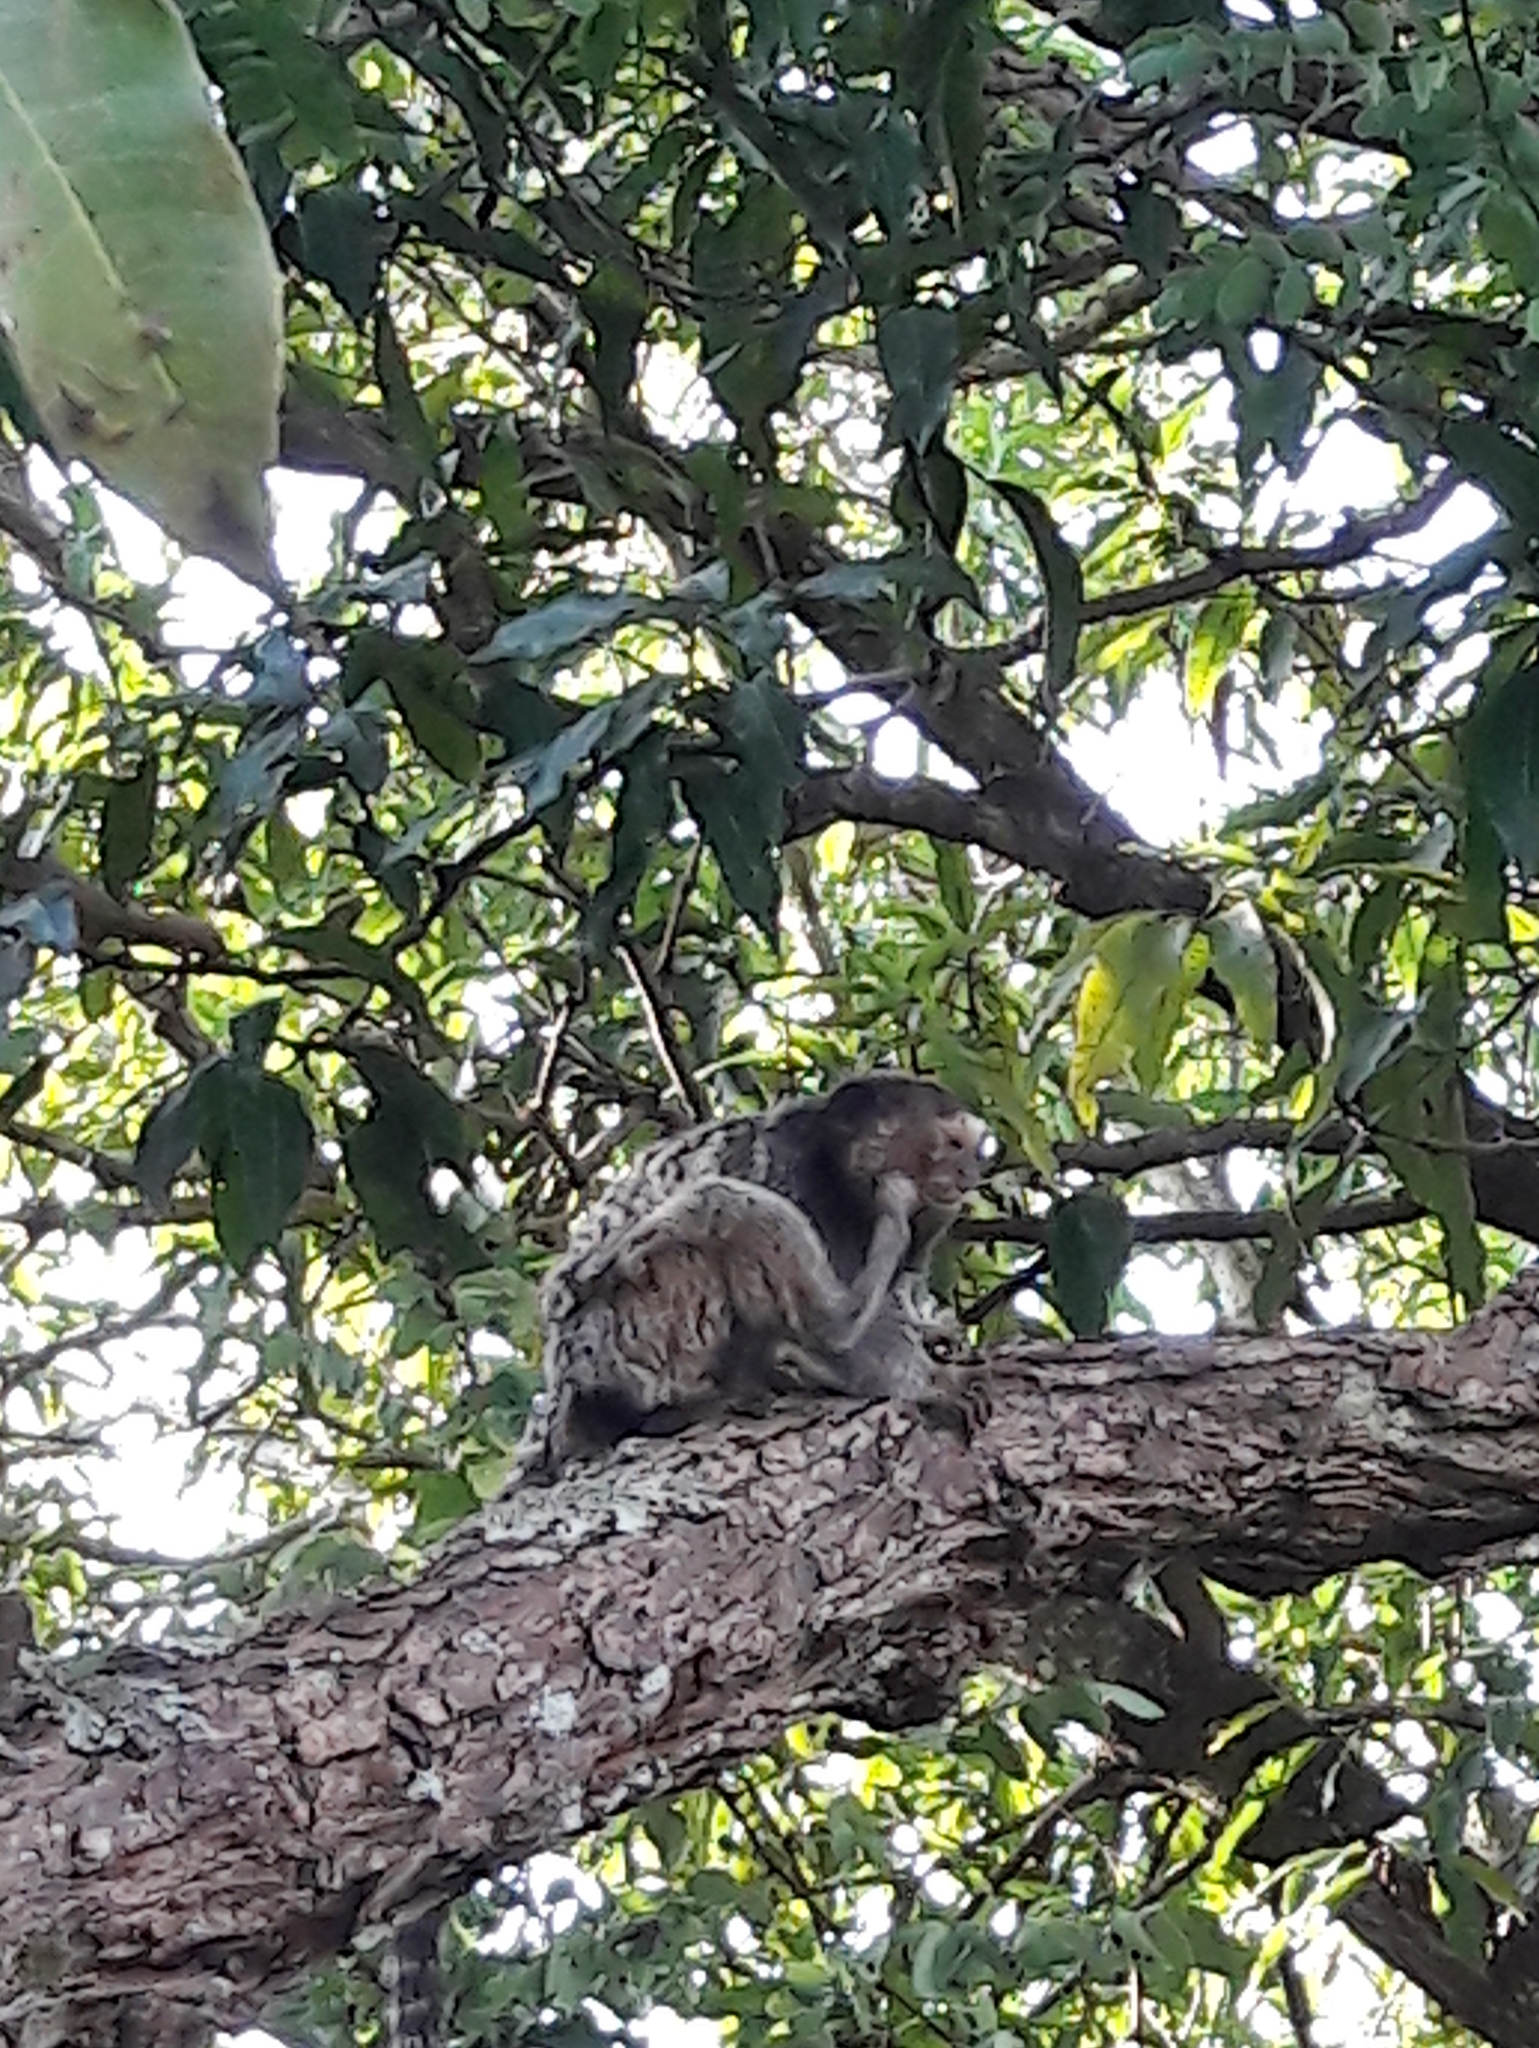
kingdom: Animalia
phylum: Chordata
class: Mammalia
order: Primates
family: Callitrichidae
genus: Callithrix
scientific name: Callithrix penicillata
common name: Black-tufted marmoset
